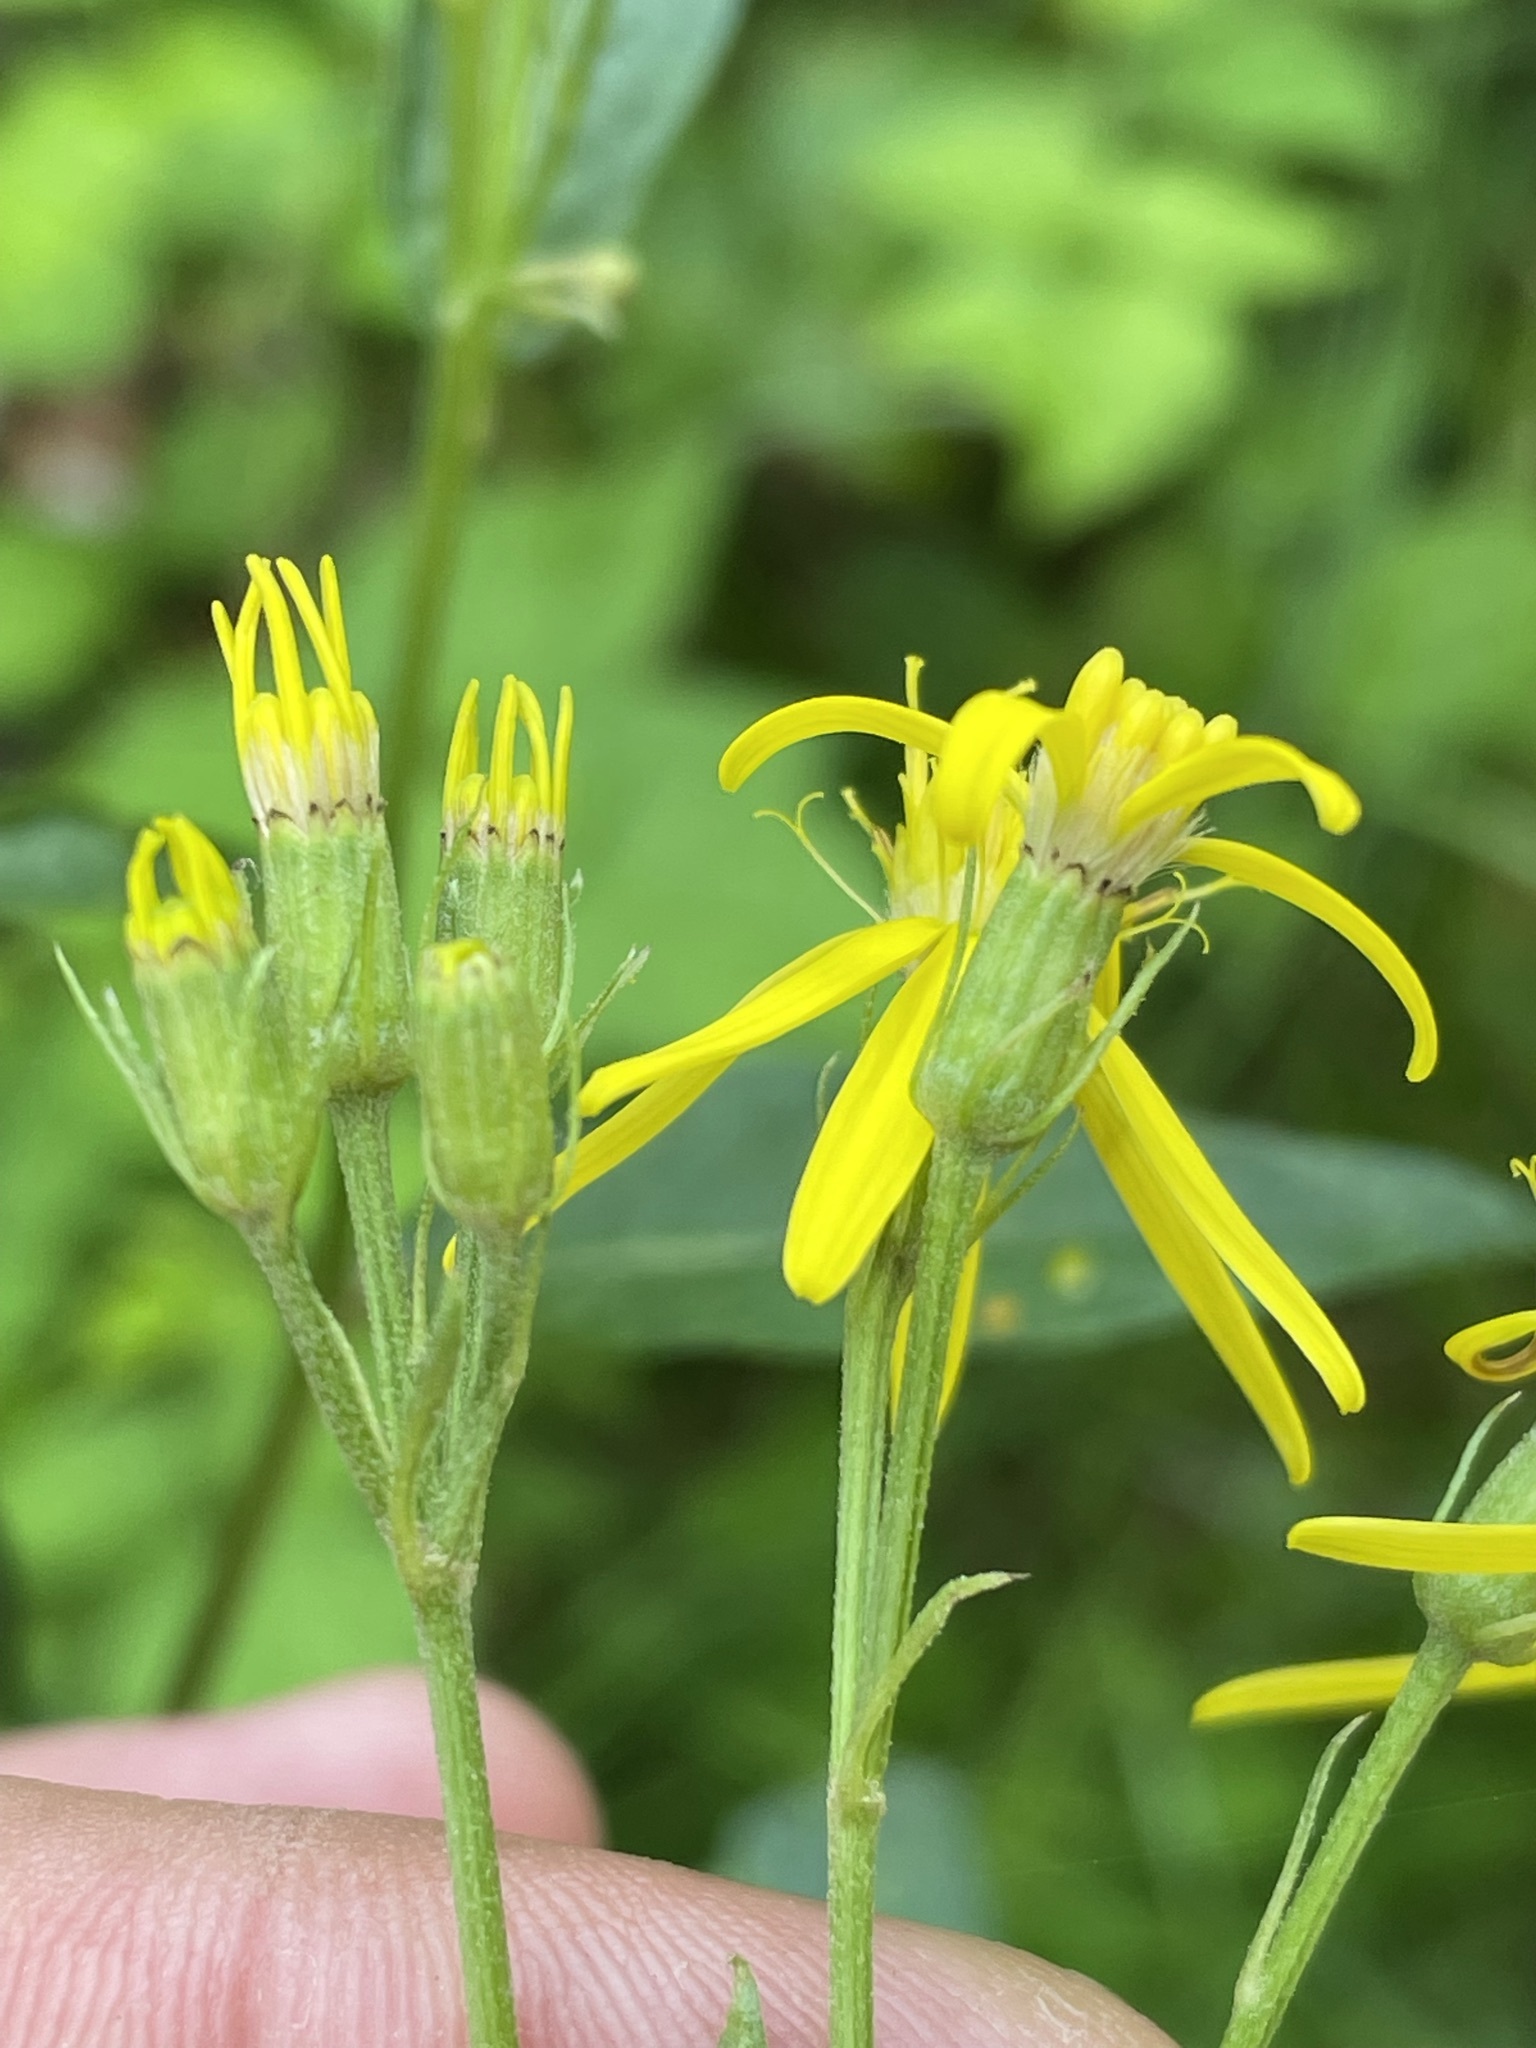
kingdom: Plantae
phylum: Tracheophyta
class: Magnoliopsida
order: Asterales
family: Asteraceae
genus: Senecio
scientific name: Senecio
